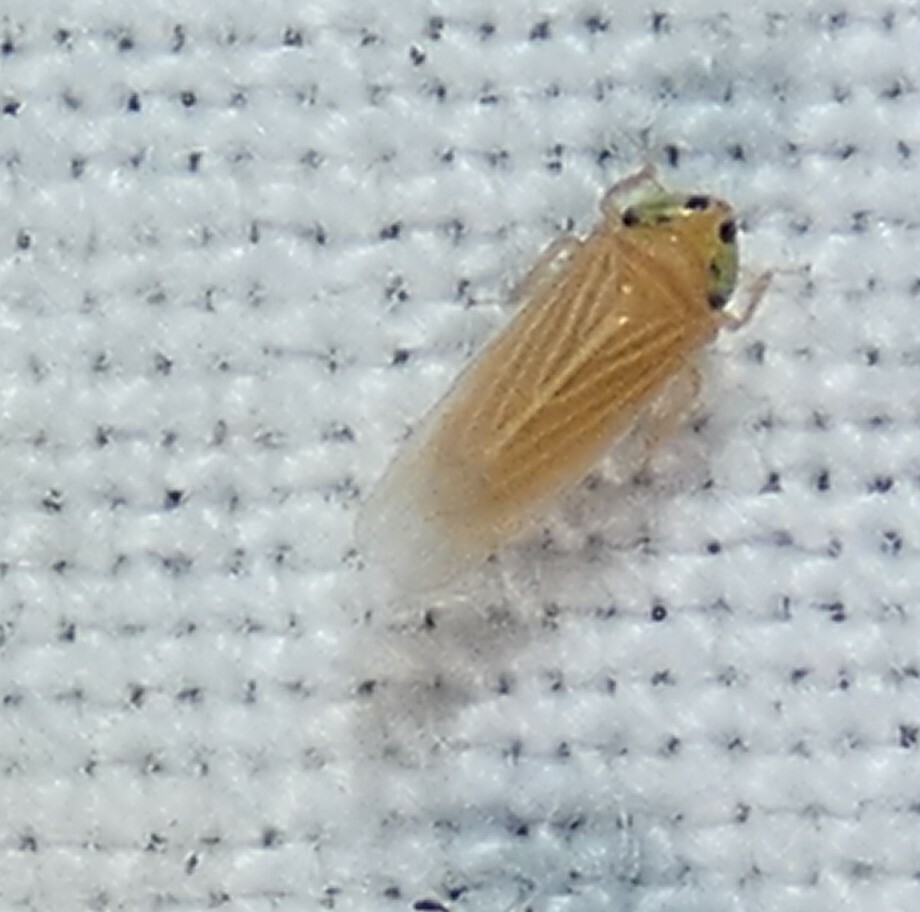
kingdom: Animalia
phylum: Arthropoda
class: Insecta
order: Hemiptera
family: Cicadellidae
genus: Graminella
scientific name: Graminella villicus
